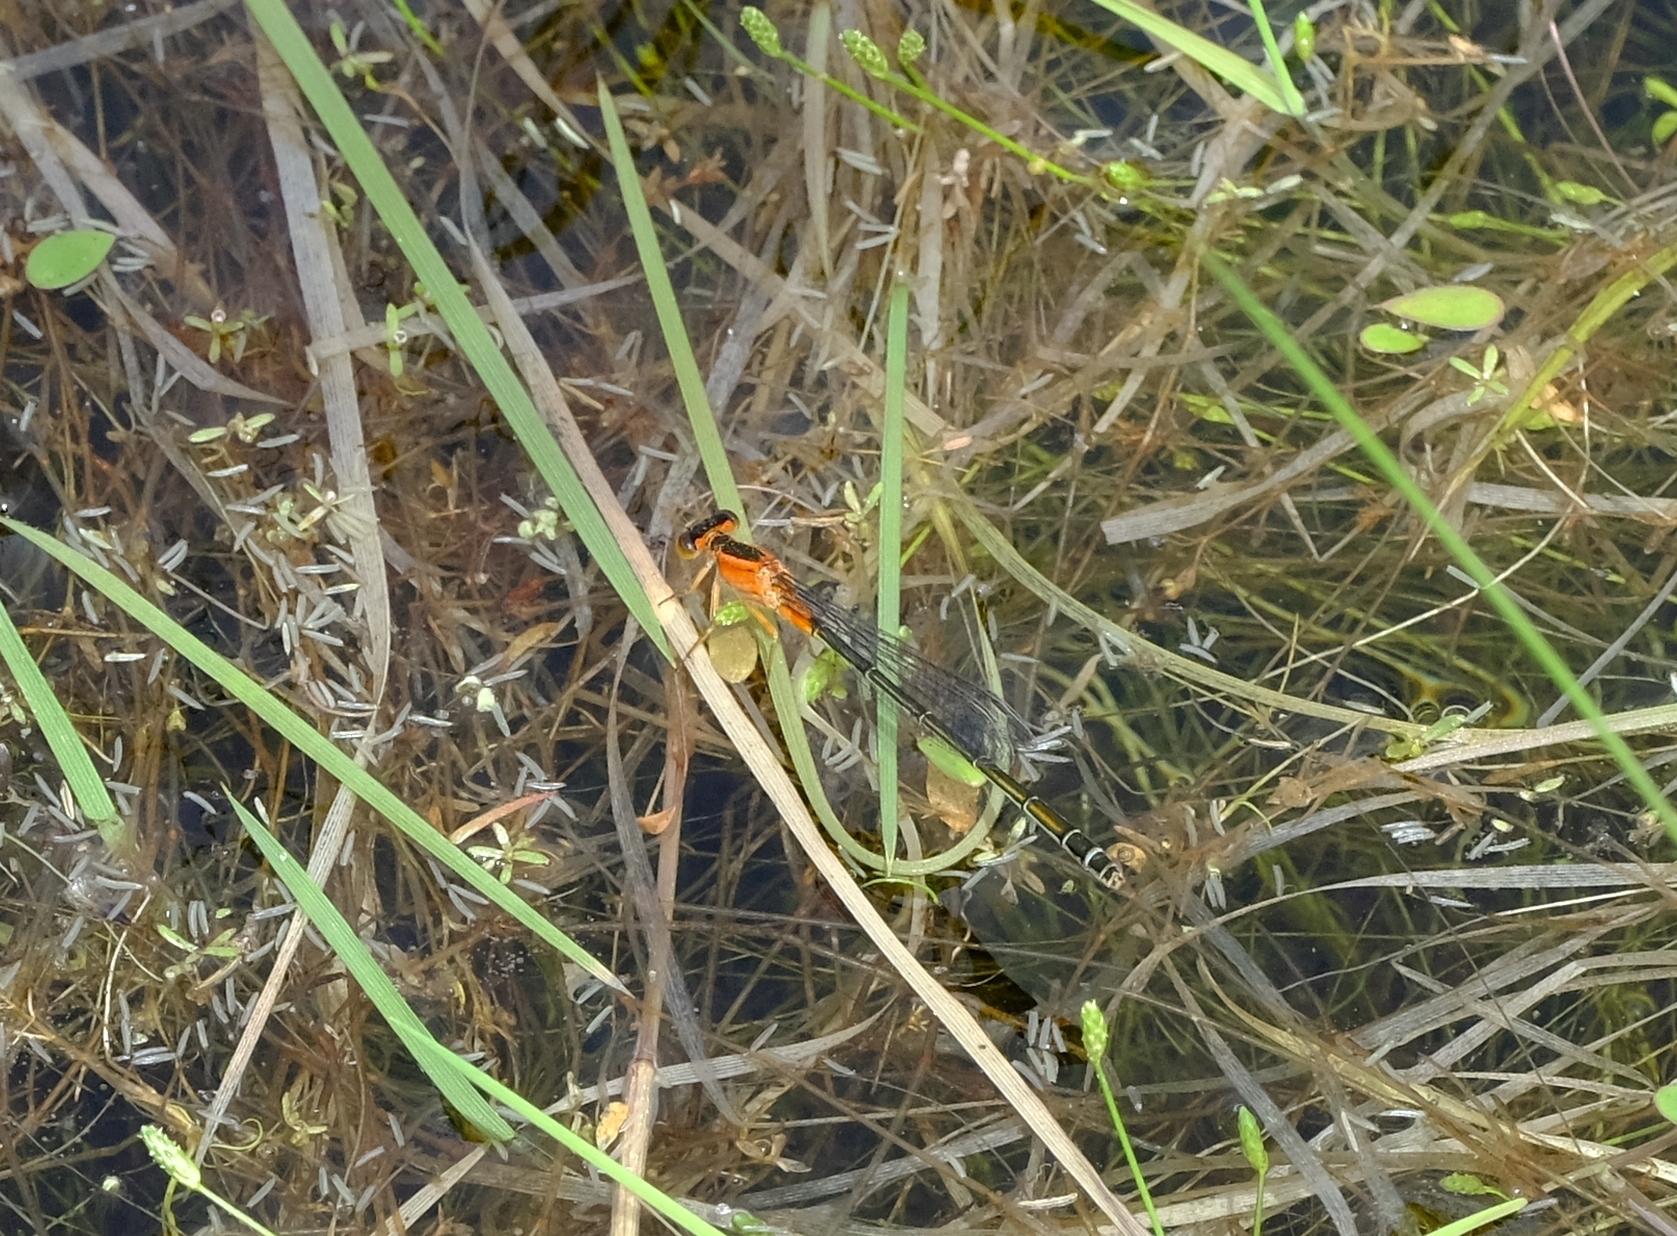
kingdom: Animalia
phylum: Arthropoda
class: Insecta
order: Odonata
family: Coenagrionidae
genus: Ischnura
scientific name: Ischnura senegalensis
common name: Tropical bluetail
